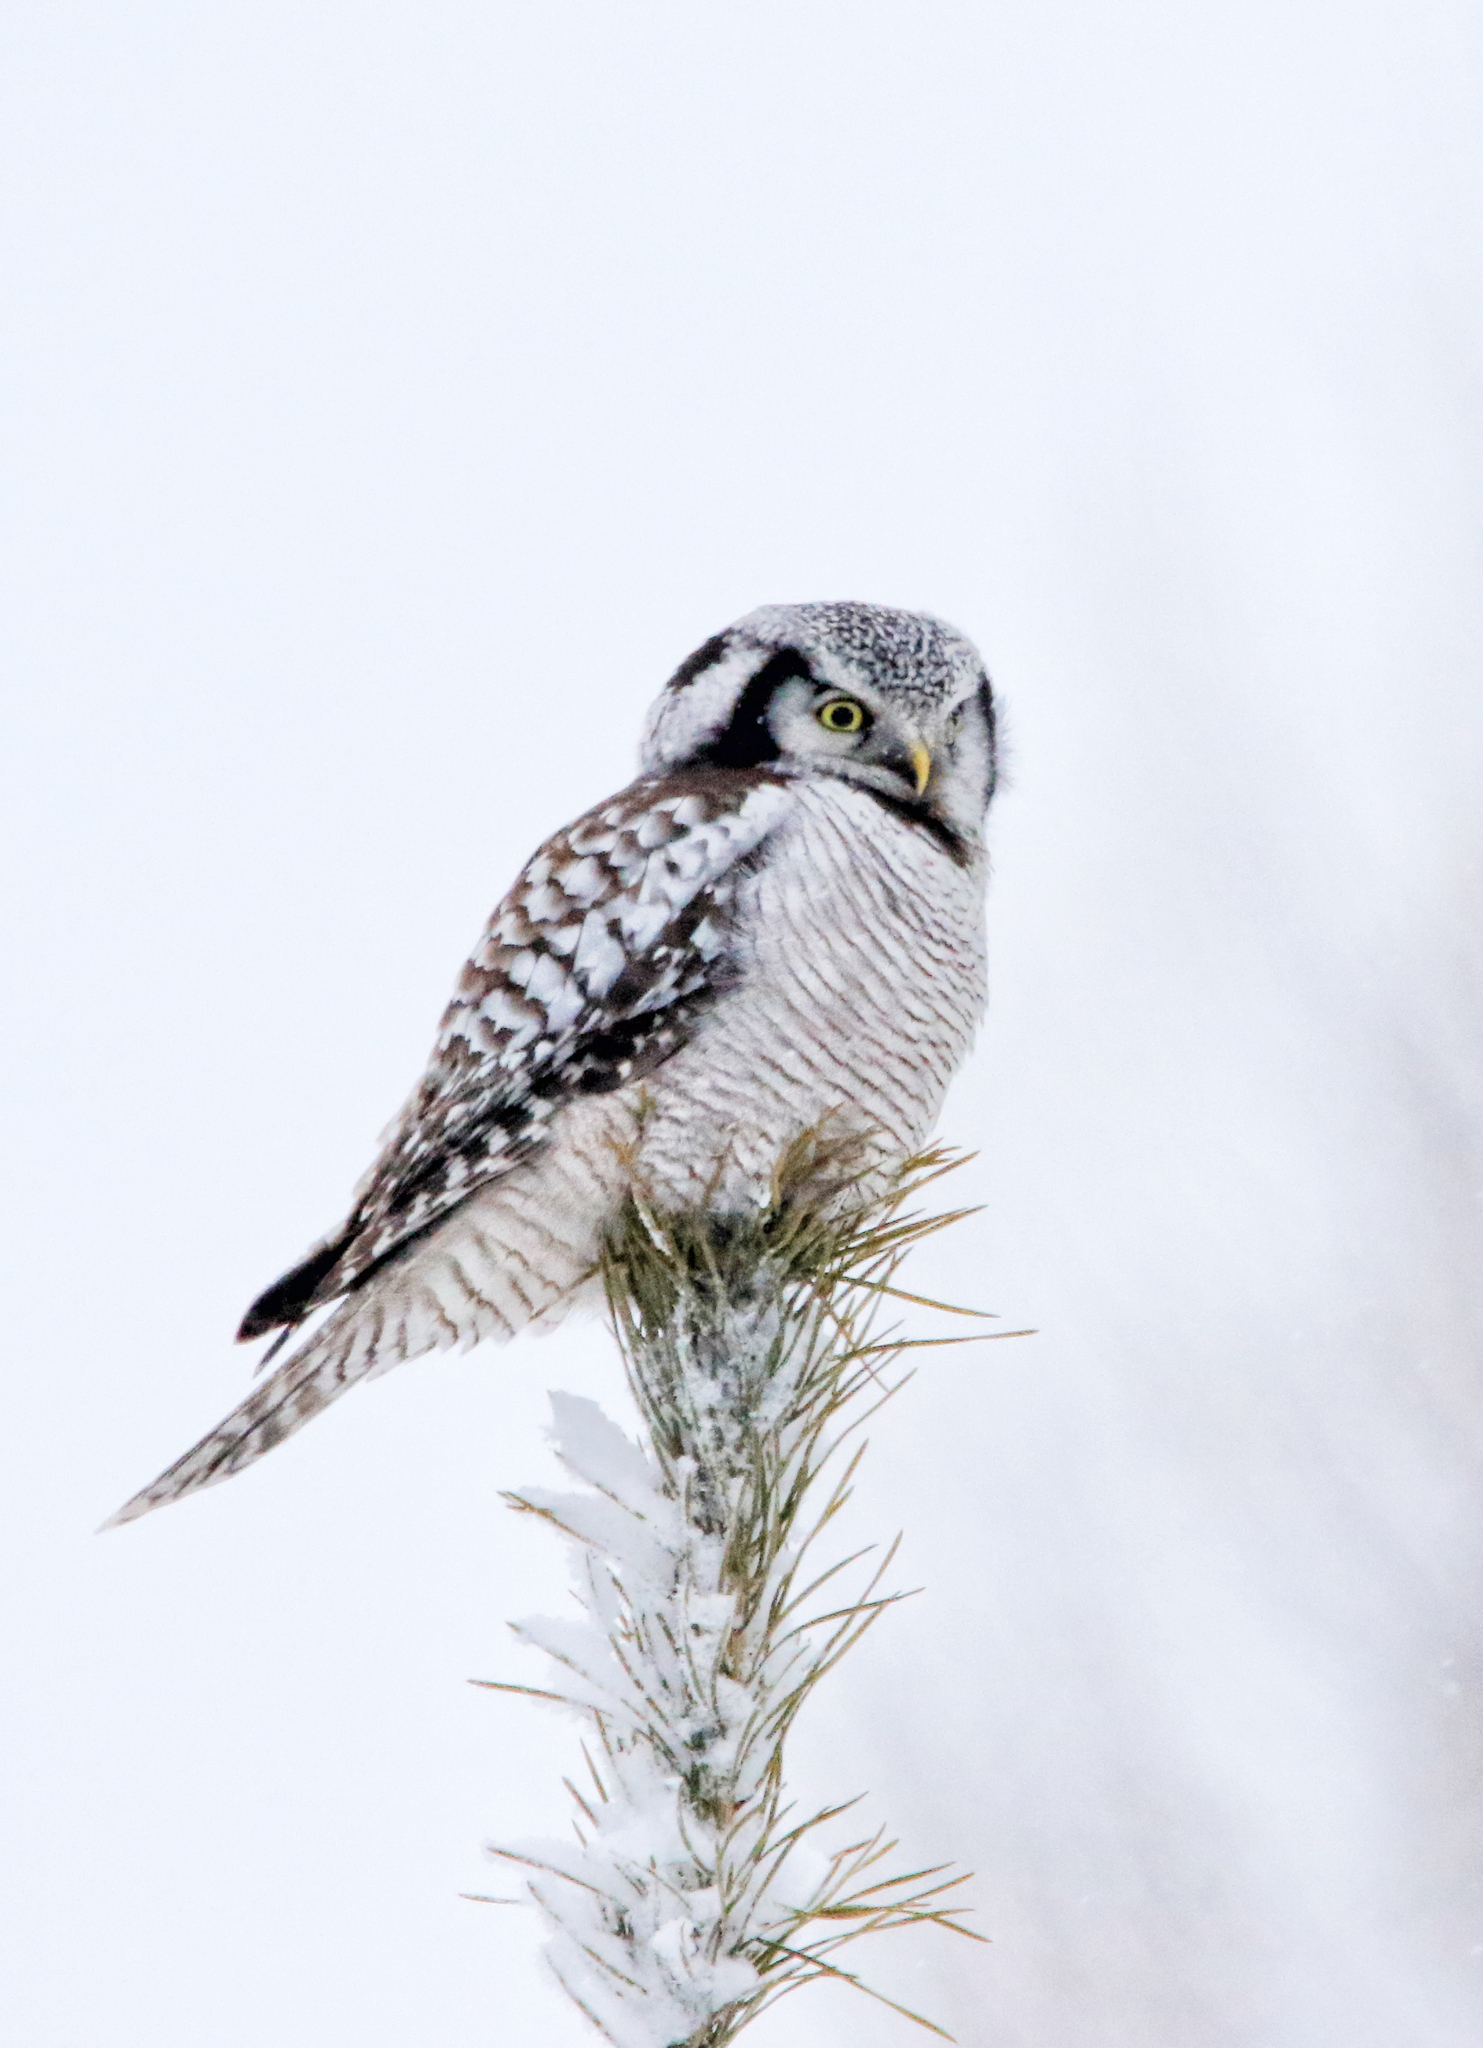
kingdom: Animalia
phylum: Chordata
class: Aves
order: Strigiformes
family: Strigidae
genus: Surnia
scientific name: Surnia ulula
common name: Northern hawk-owl
